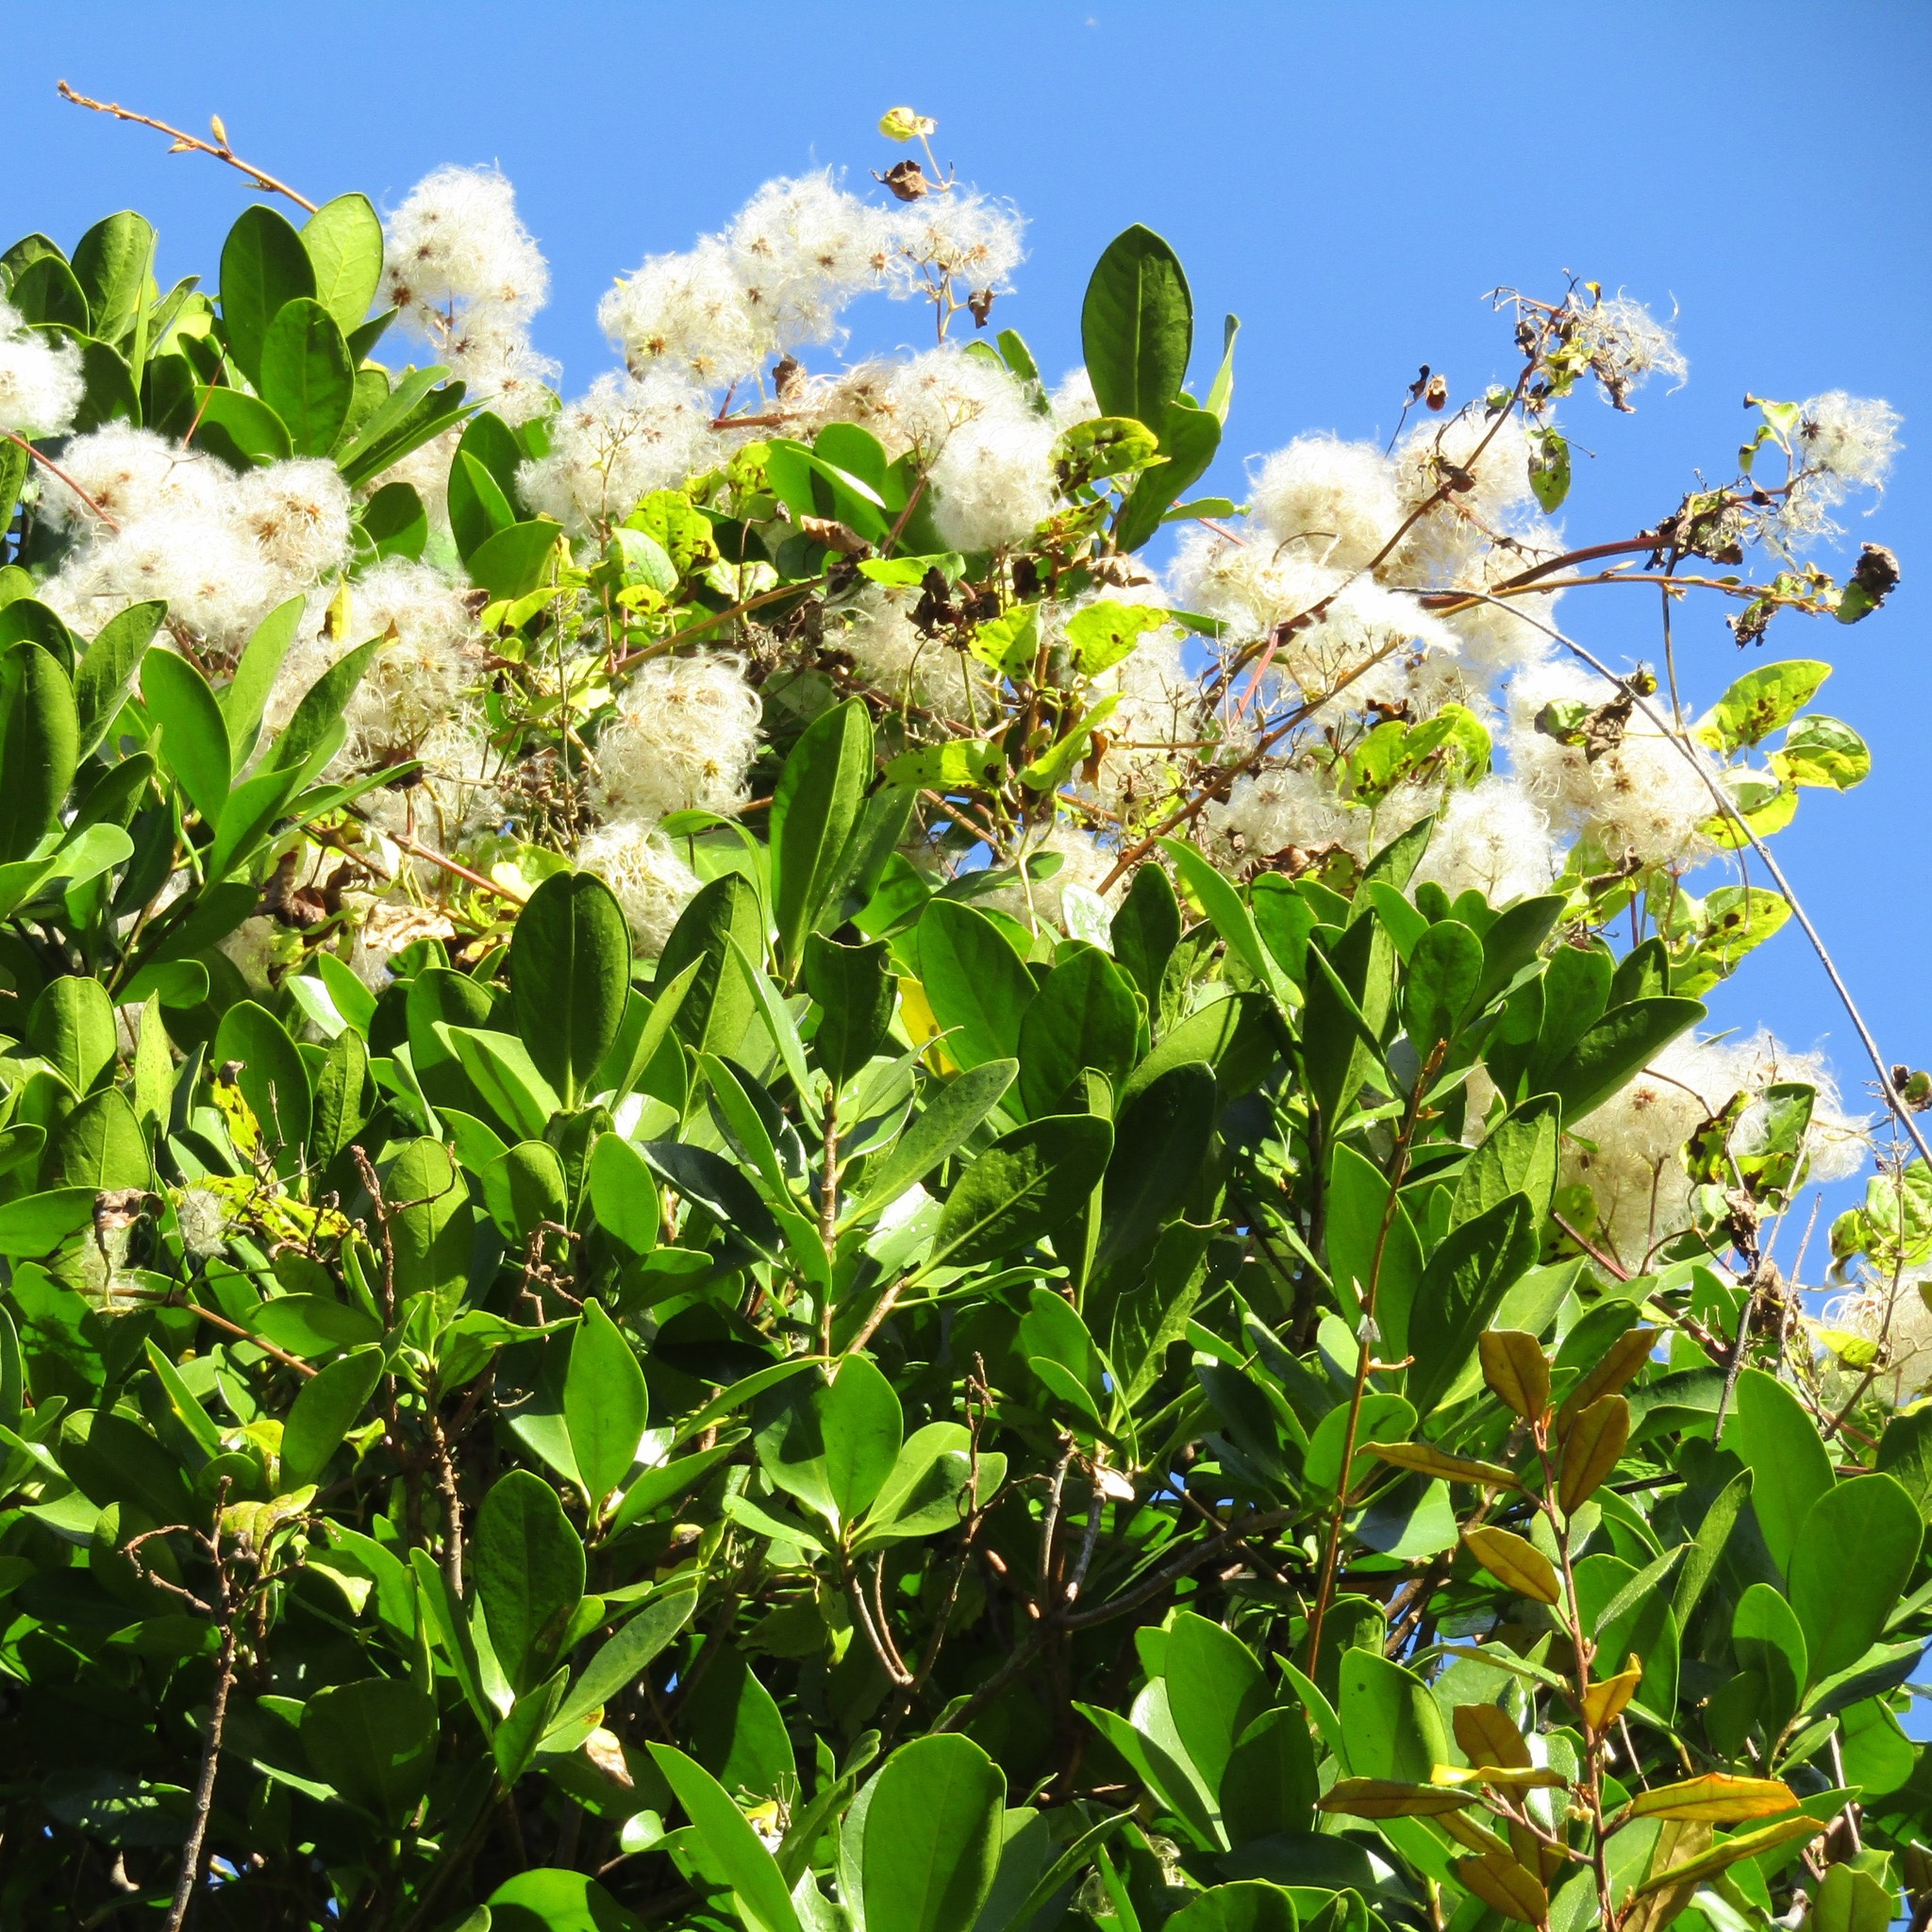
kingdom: Plantae
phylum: Tracheophyta
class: Magnoliopsida
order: Cucurbitales
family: Corynocarpaceae
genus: Corynocarpus
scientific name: Corynocarpus laevigatus
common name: New zealand laurel
